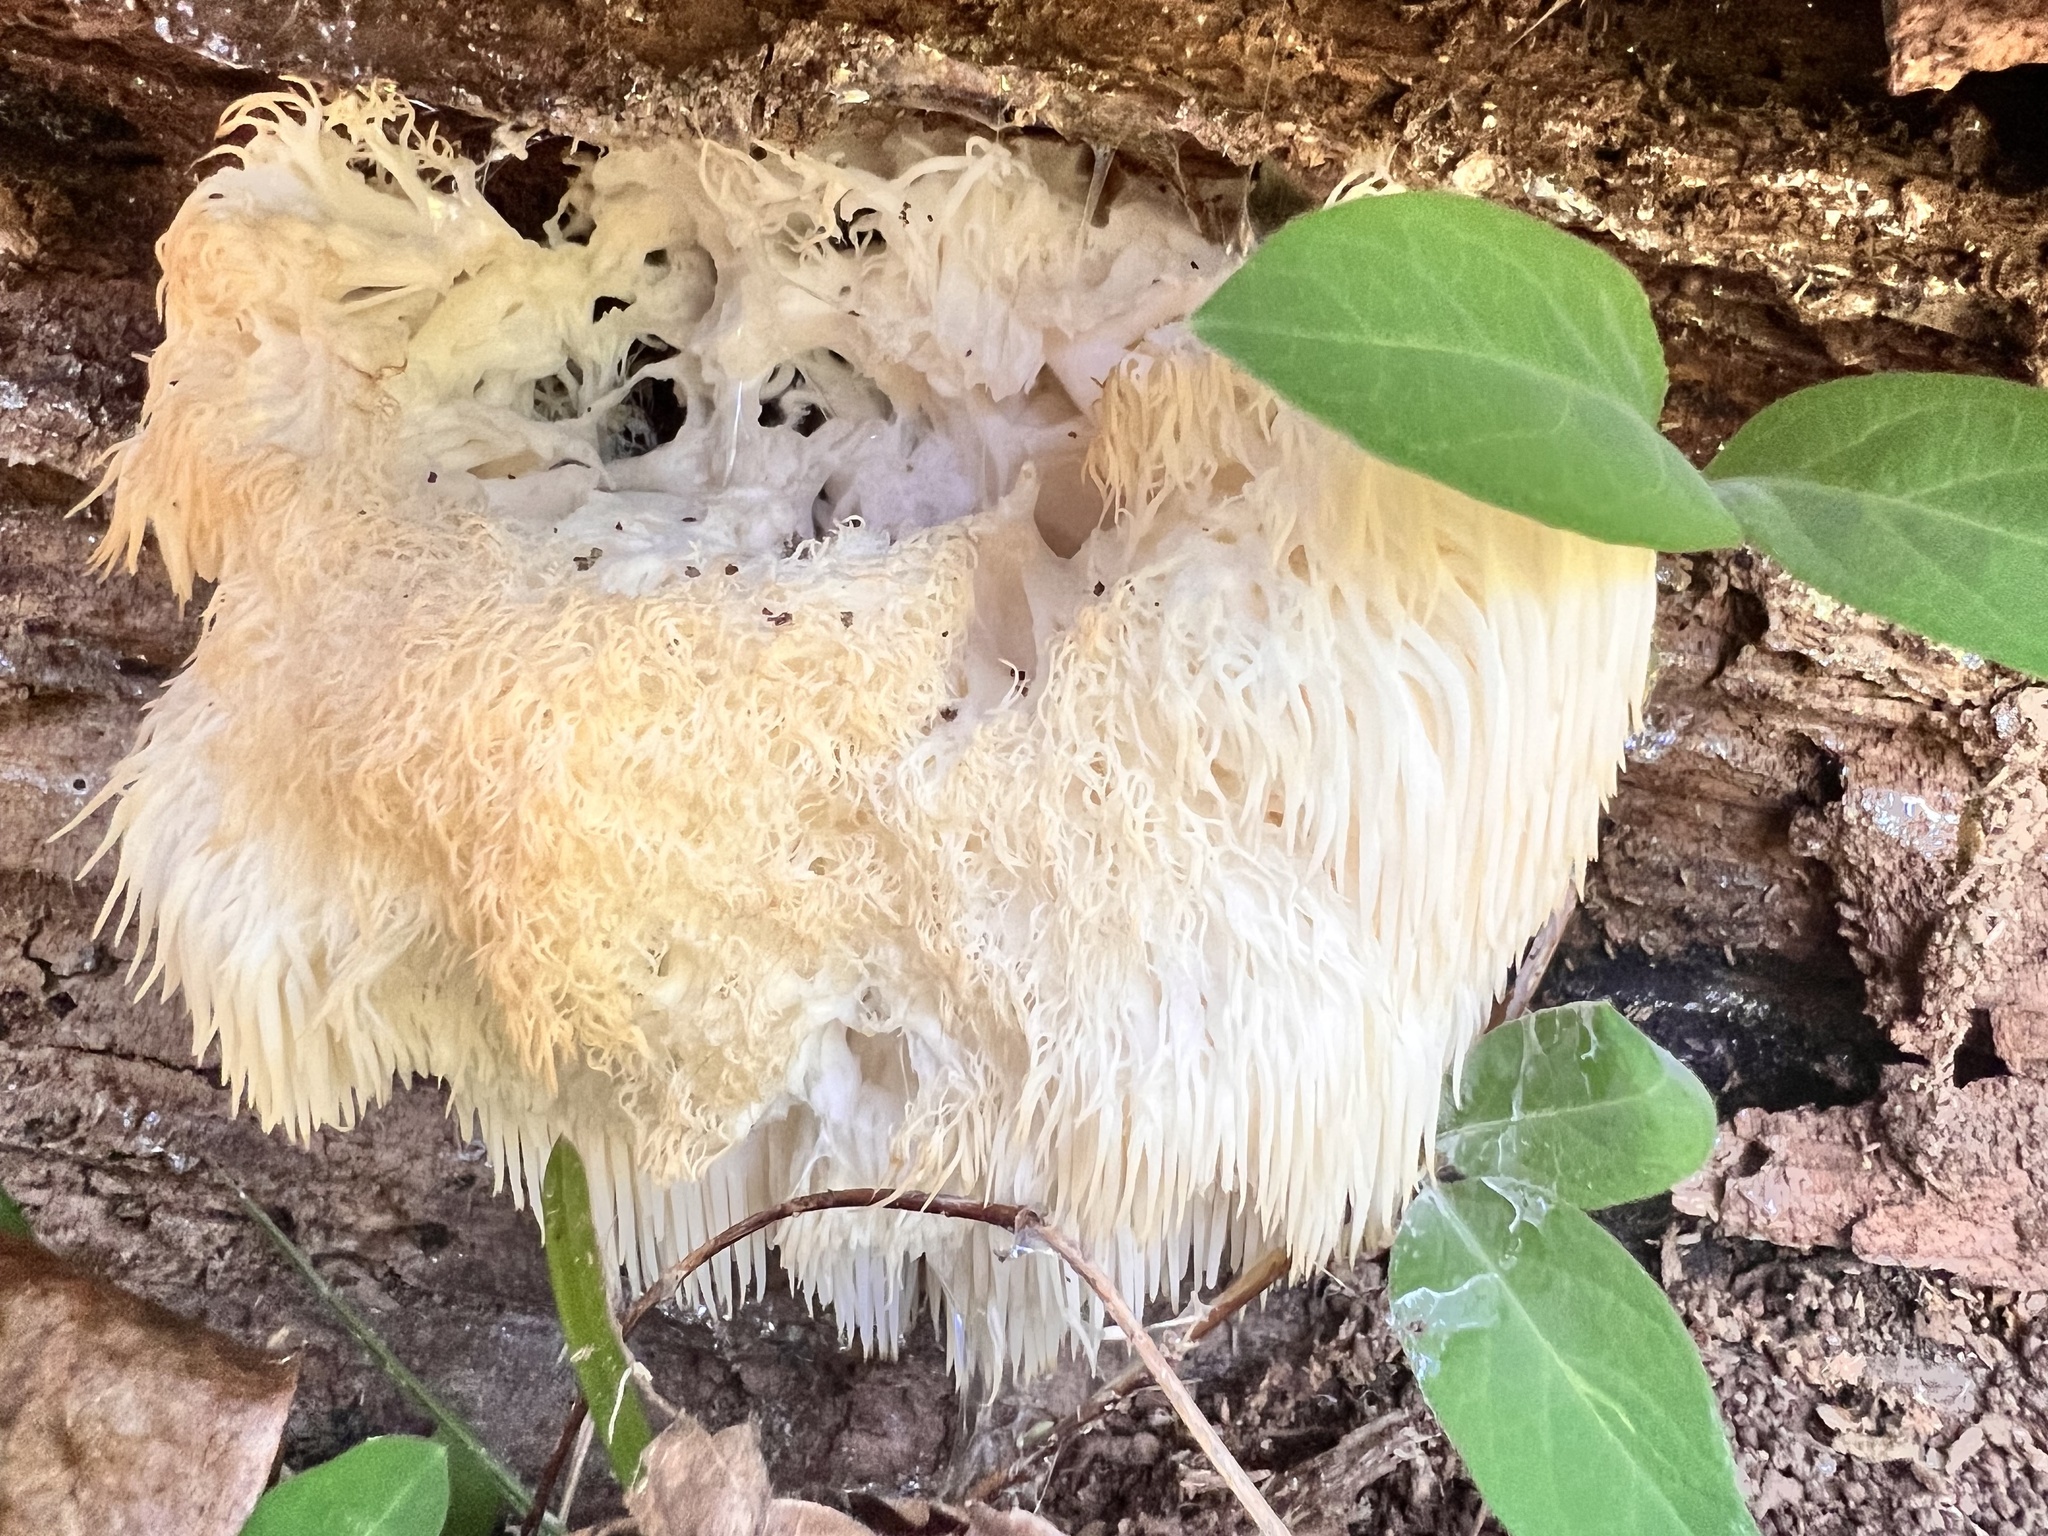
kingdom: Fungi
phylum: Basidiomycota
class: Agaricomycetes
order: Russulales
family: Hericiaceae
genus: Hericium
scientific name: Hericium erinaceus
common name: Bearded tooth
